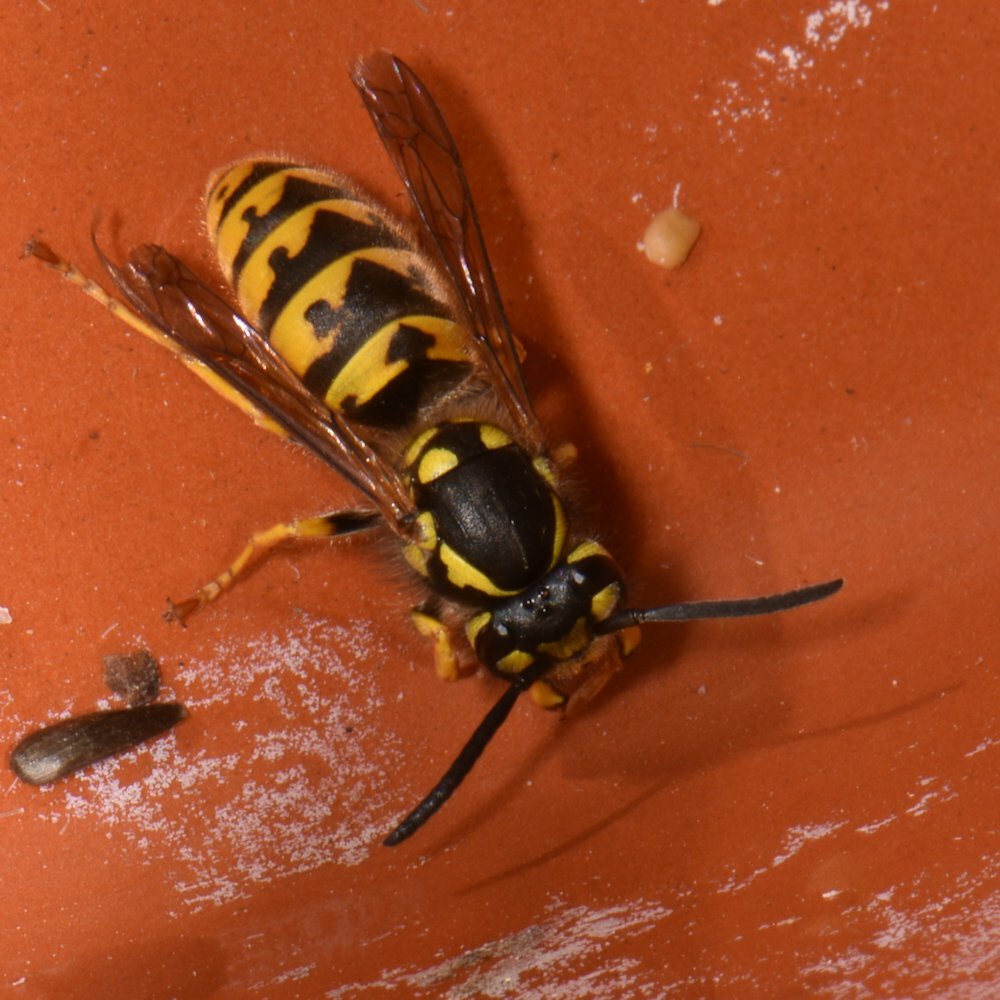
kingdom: Animalia
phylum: Arthropoda
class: Insecta
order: Hymenoptera
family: Vespidae
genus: Vespula
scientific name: Vespula germanica
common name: German wasp
